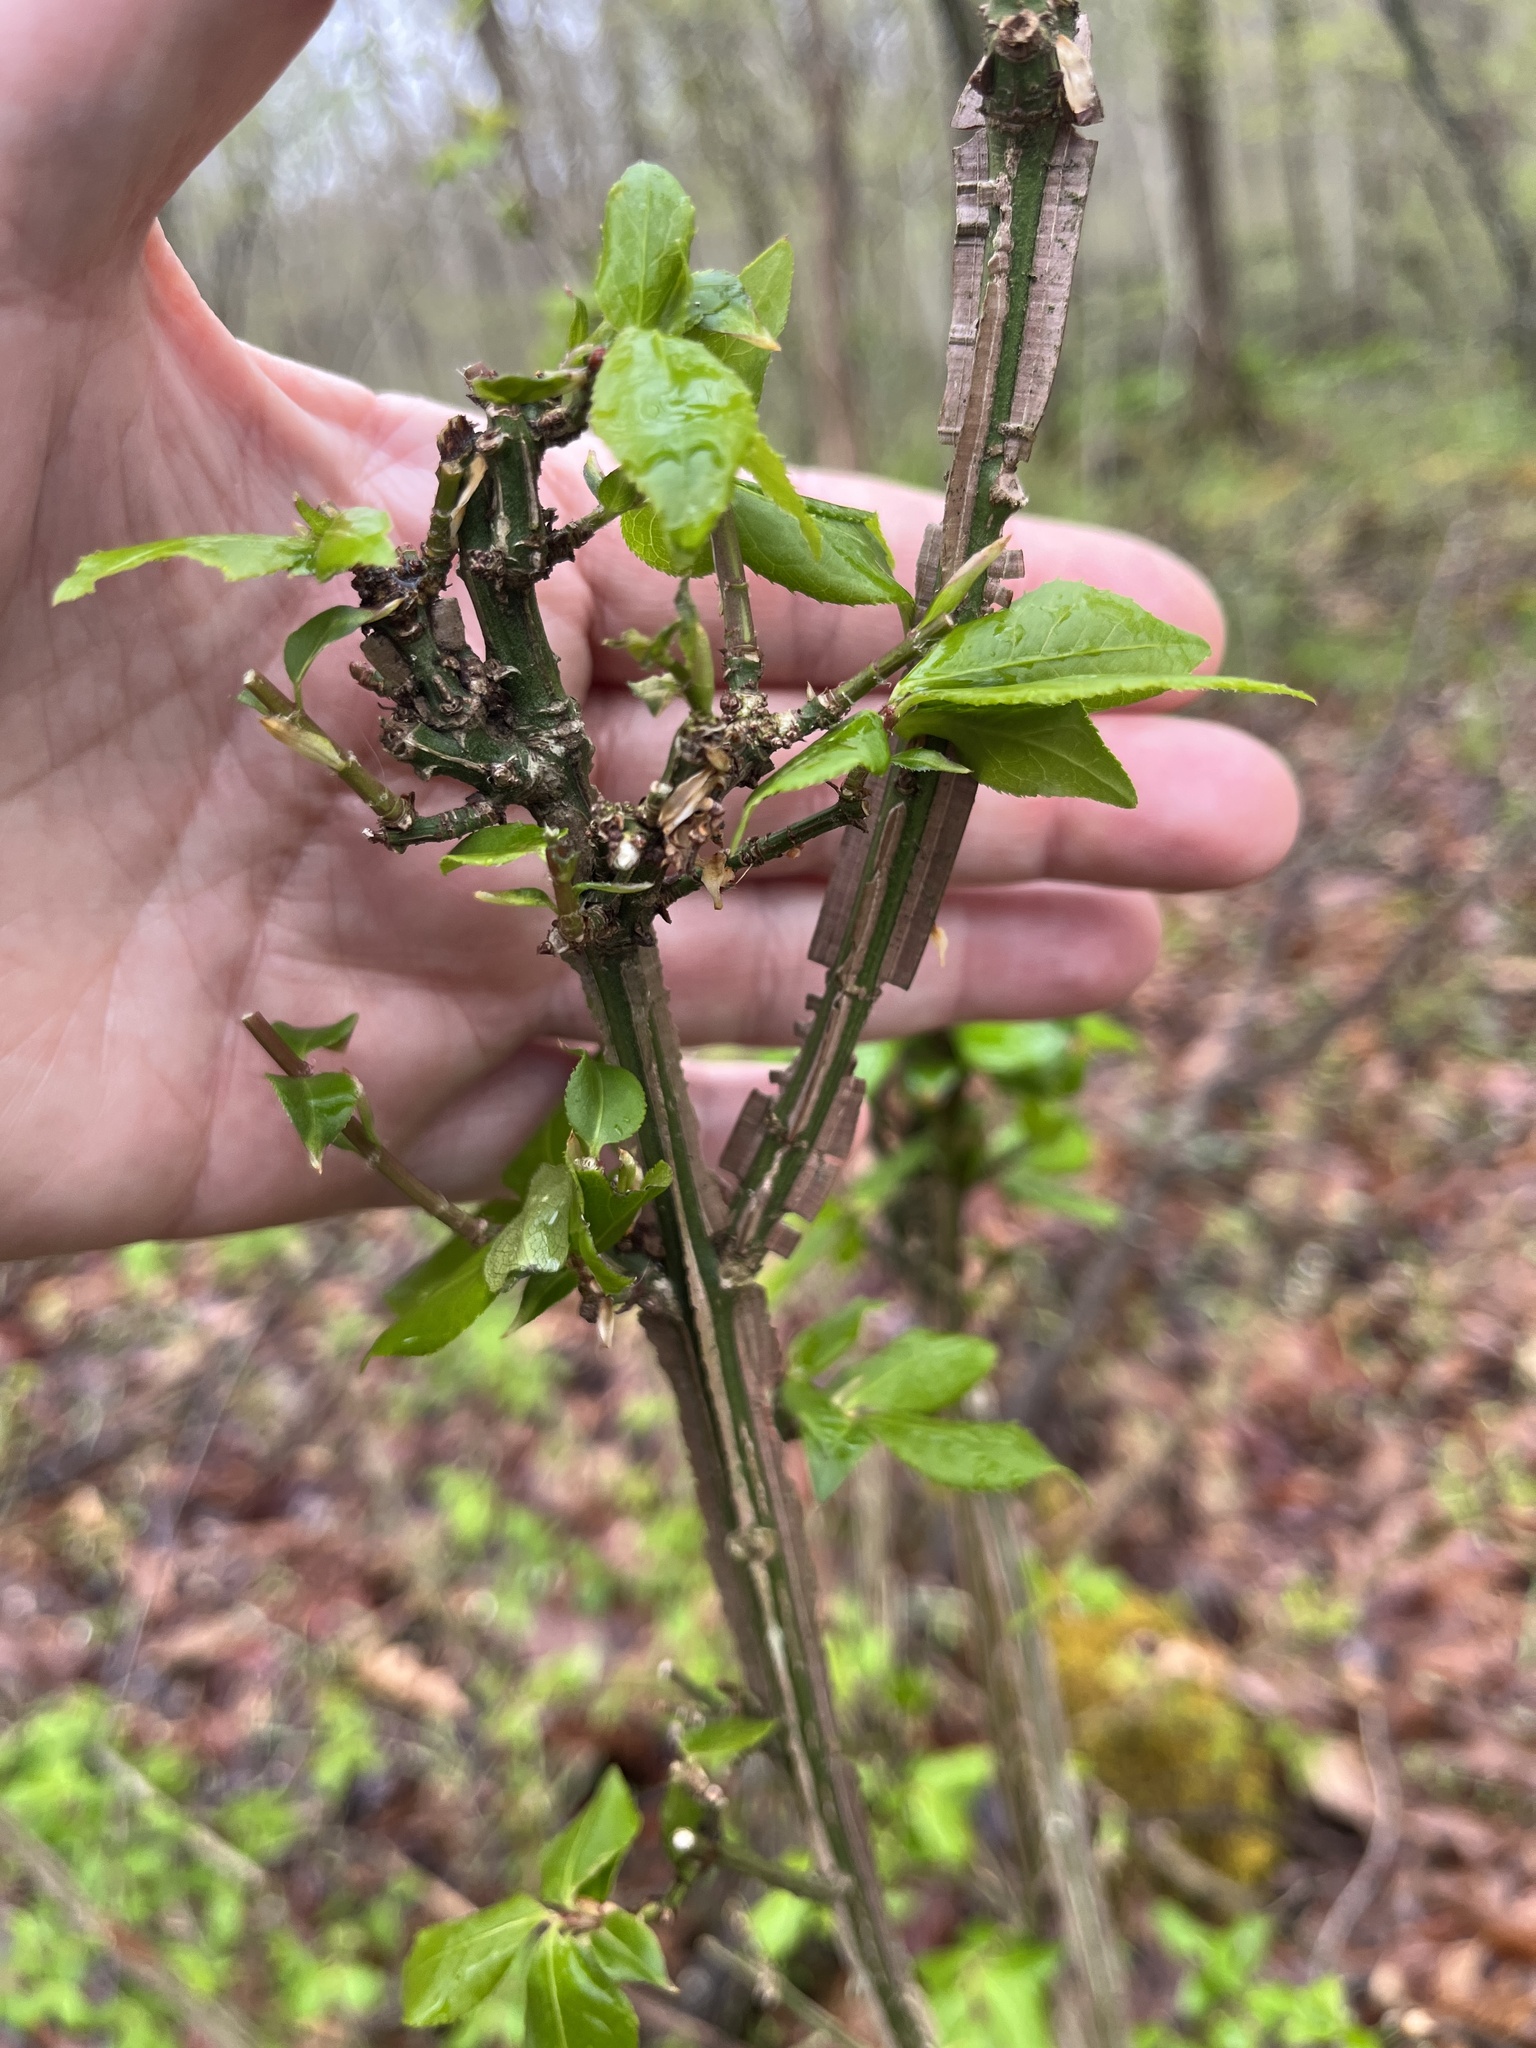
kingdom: Plantae
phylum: Tracheophyta
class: Magnoliopsida
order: Celastrales
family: Celastraceae
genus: Euonymus
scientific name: Euonymus alatus
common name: Winged euonymus
